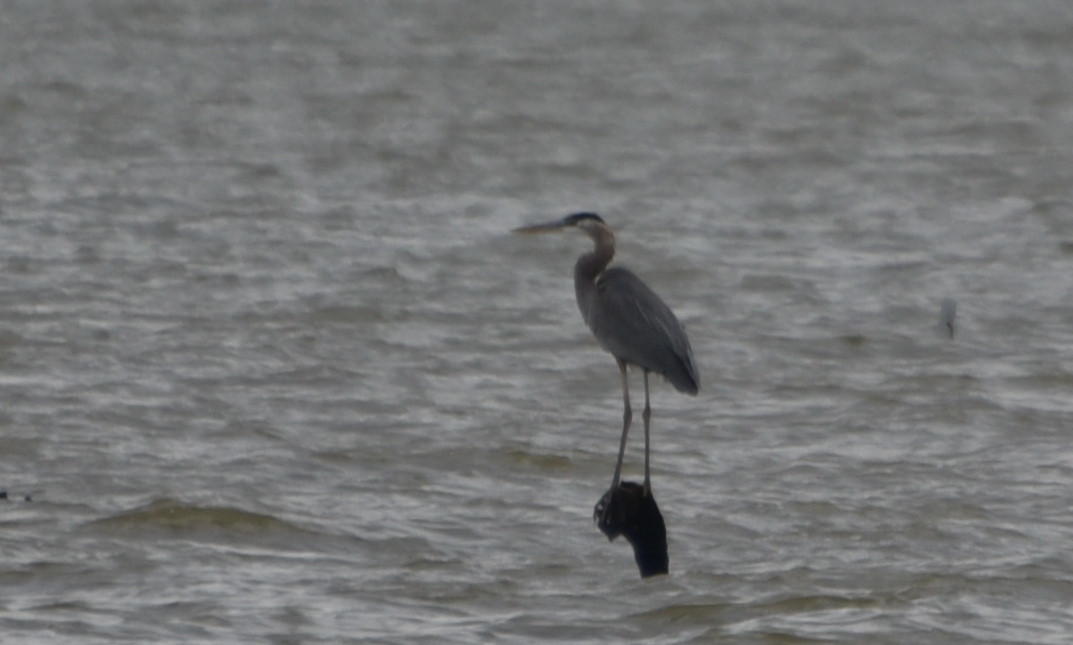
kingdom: Animalia
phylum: Chordata
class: Aves
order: Pelecaniformes
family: Ardeidae
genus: Ardea
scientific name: Ardea herodias
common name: Great blue heron
